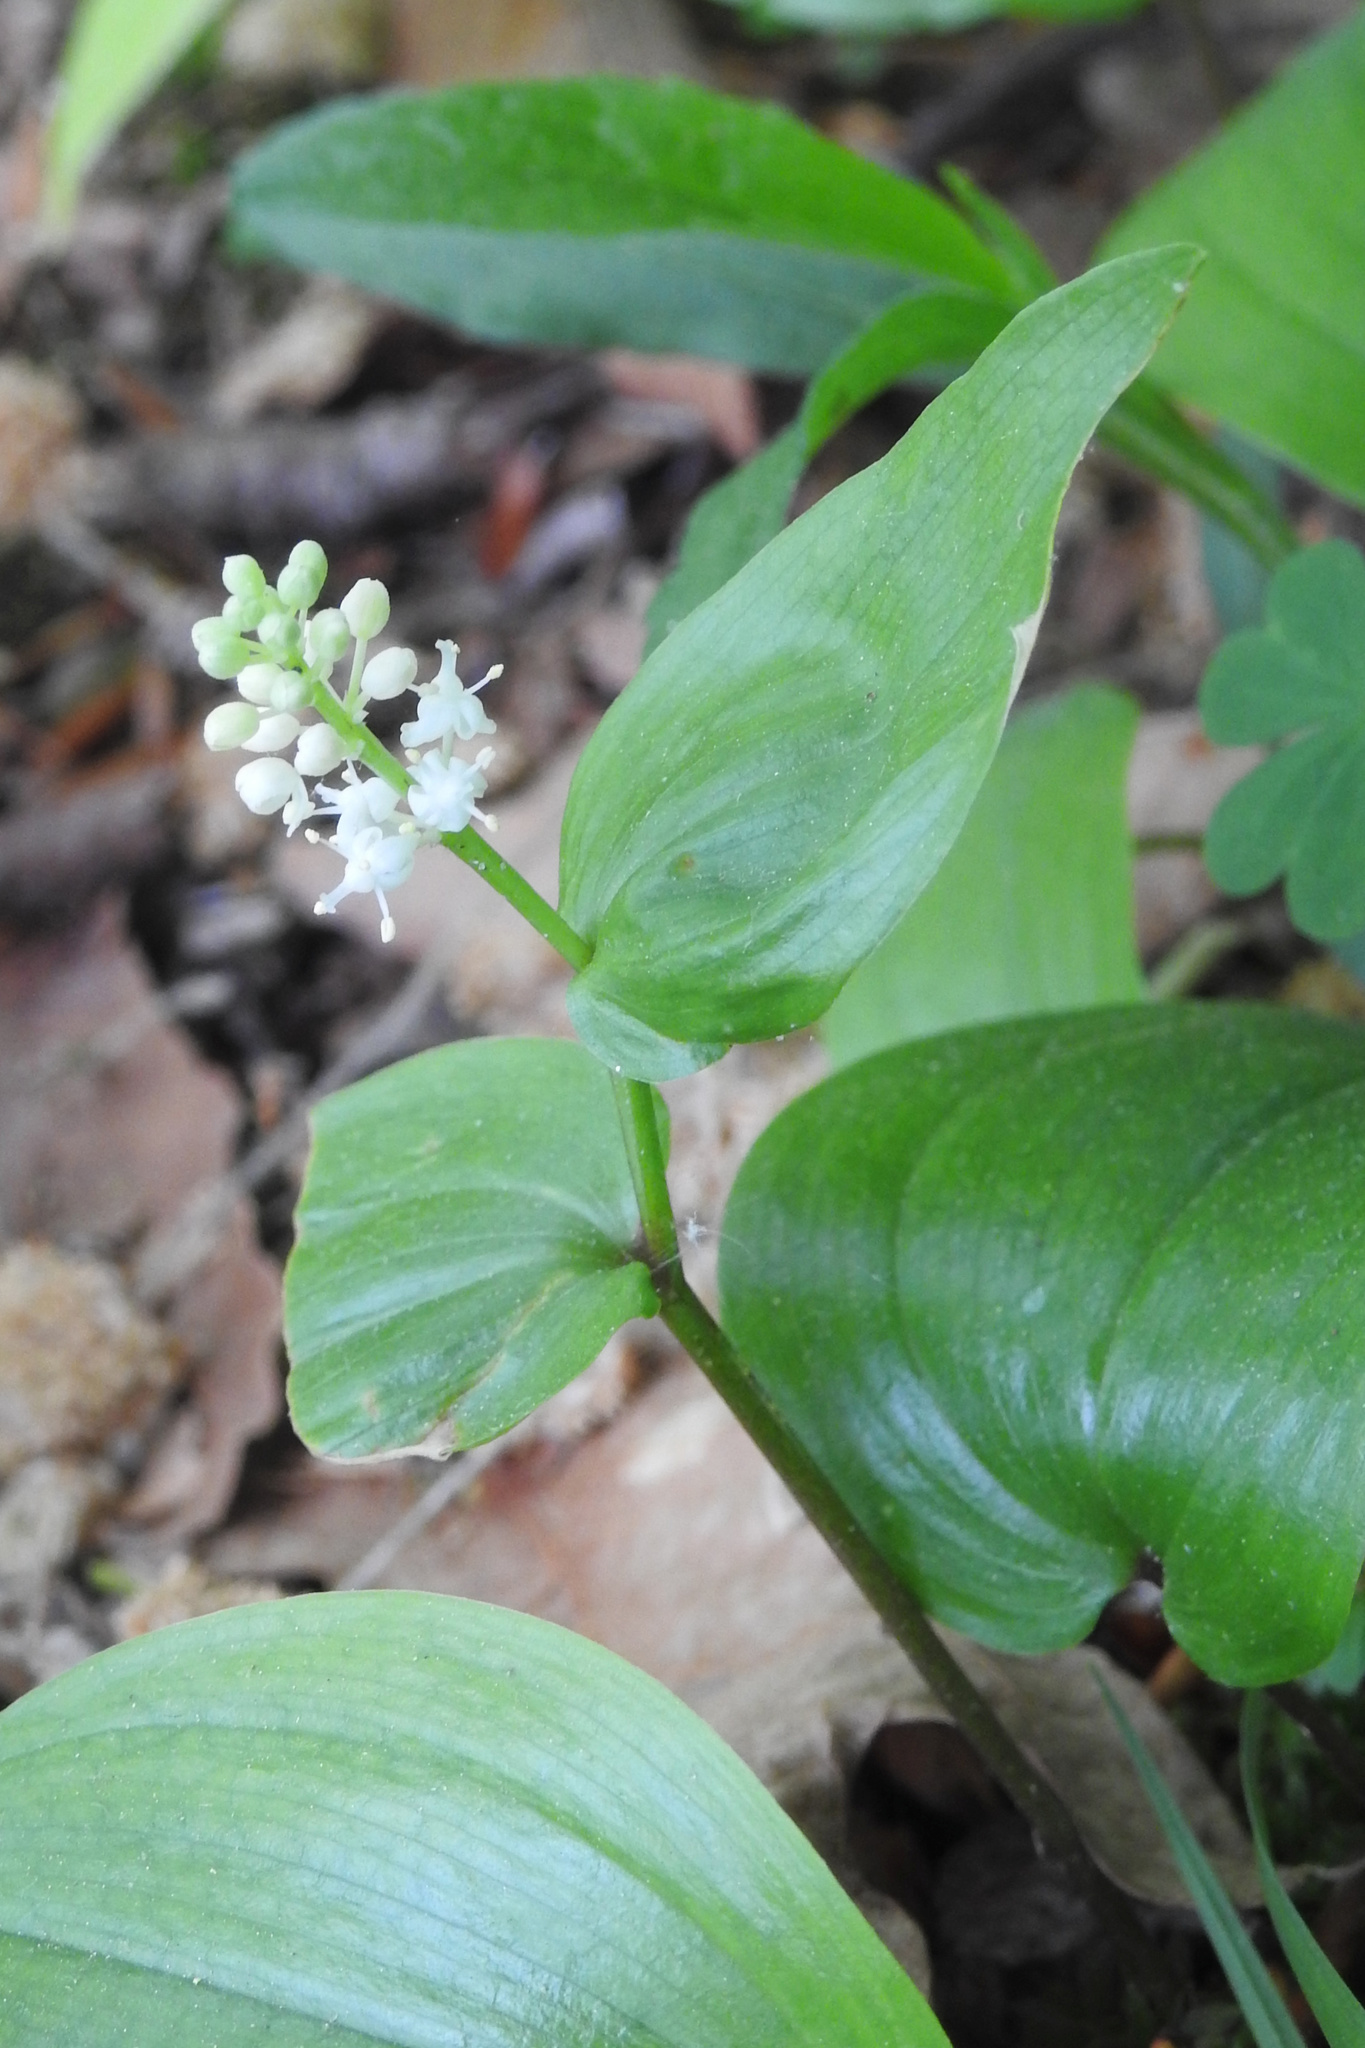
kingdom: Plantae
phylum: Tracheophyta
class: Liliopsida
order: Asparagales
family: Asparagaceae
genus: Maianthemum
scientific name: Maianthemum canadense
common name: False lily-of-the-valley
